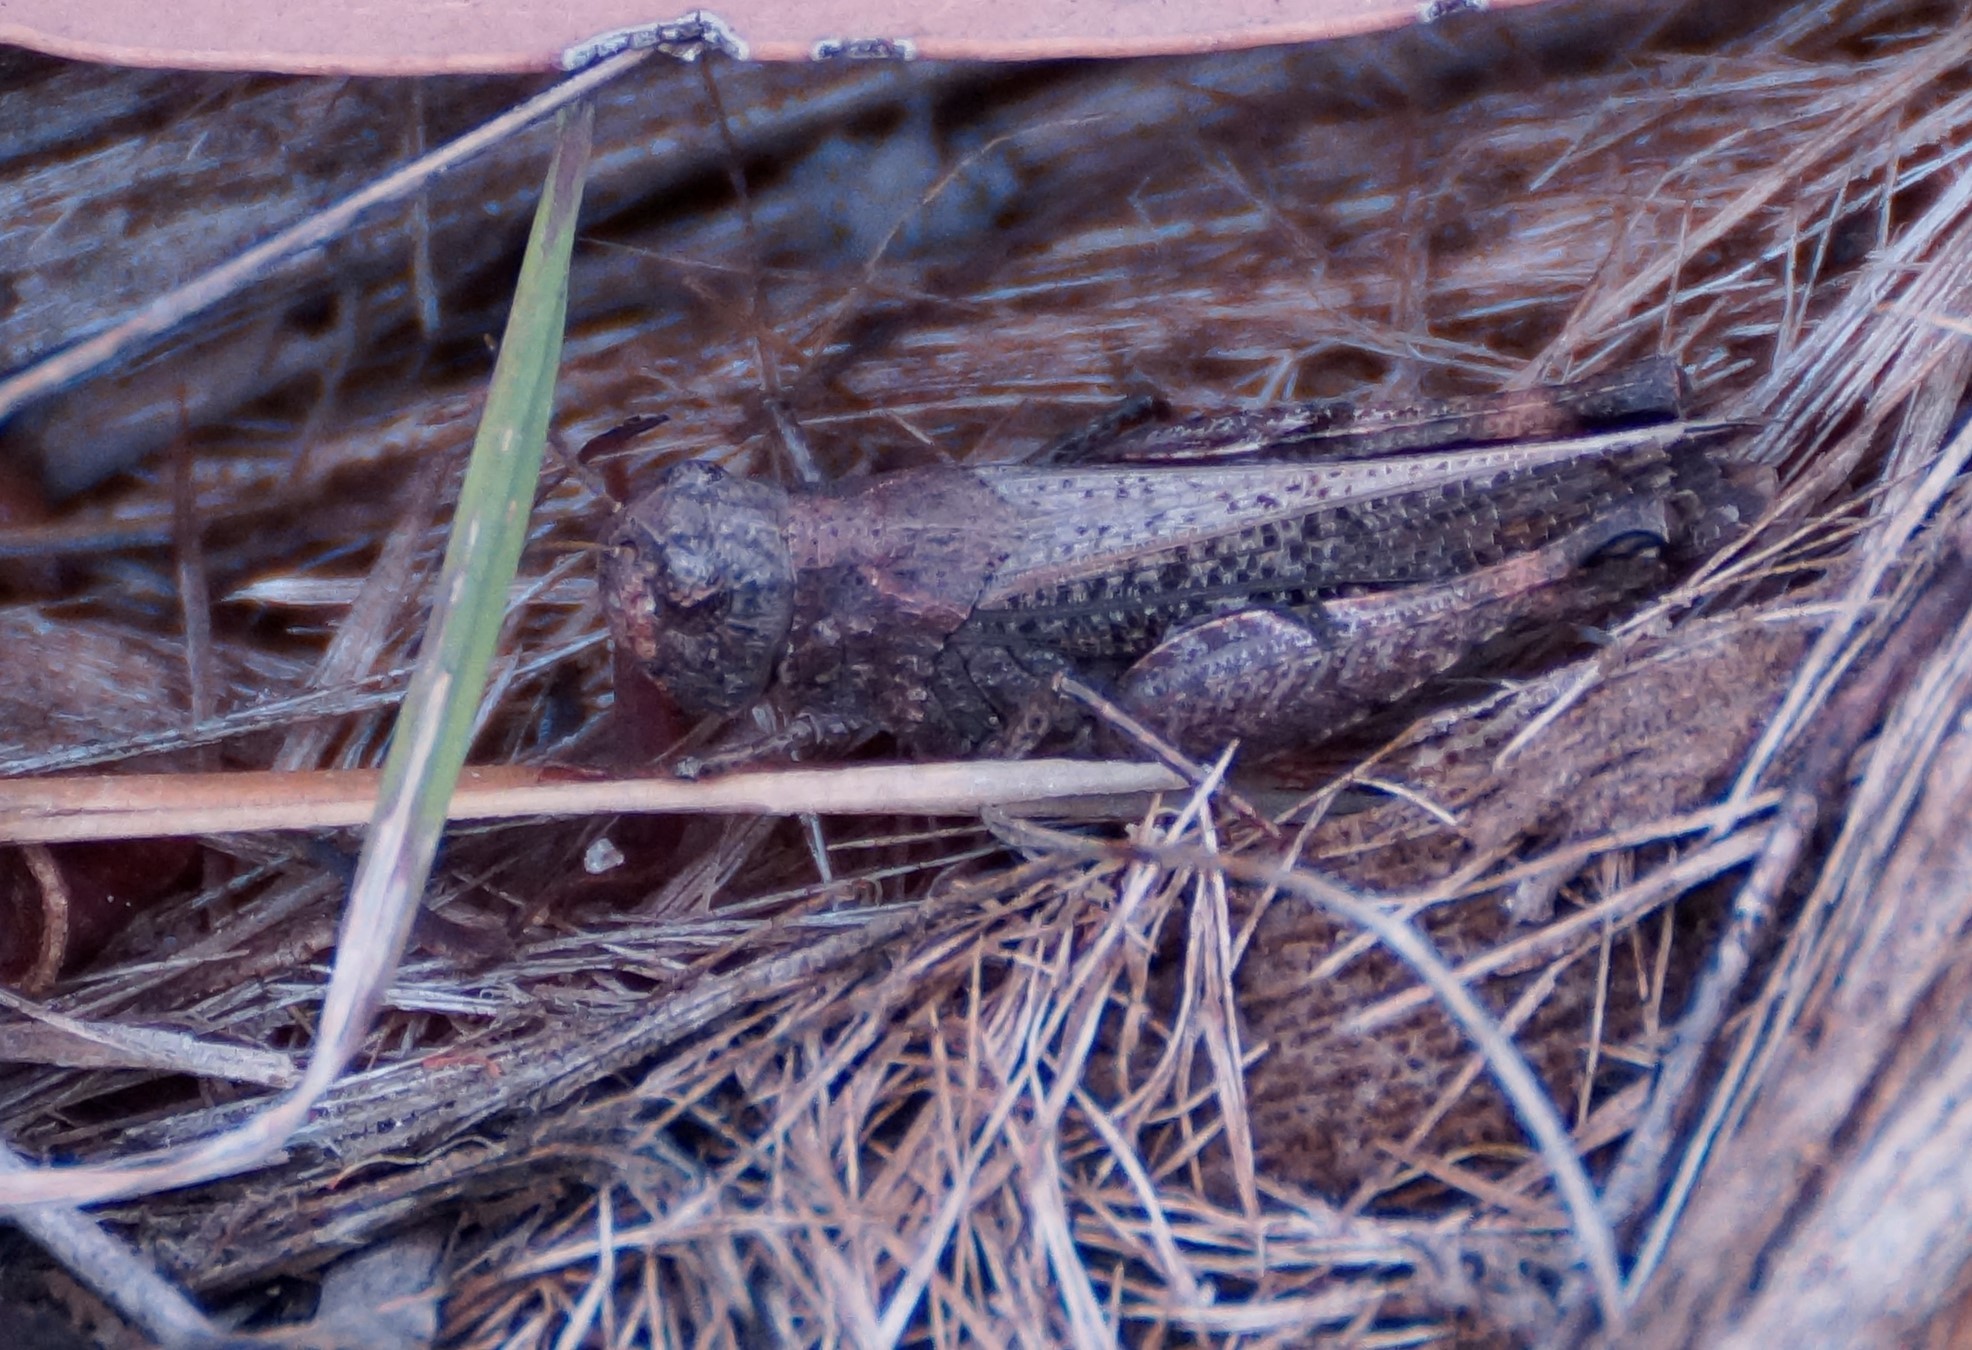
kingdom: Animalia
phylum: Arthropoda
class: Insecta
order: Orthoptera
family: Acrididae
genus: Exarna
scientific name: Exarna includens
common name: Red-legged exarna
